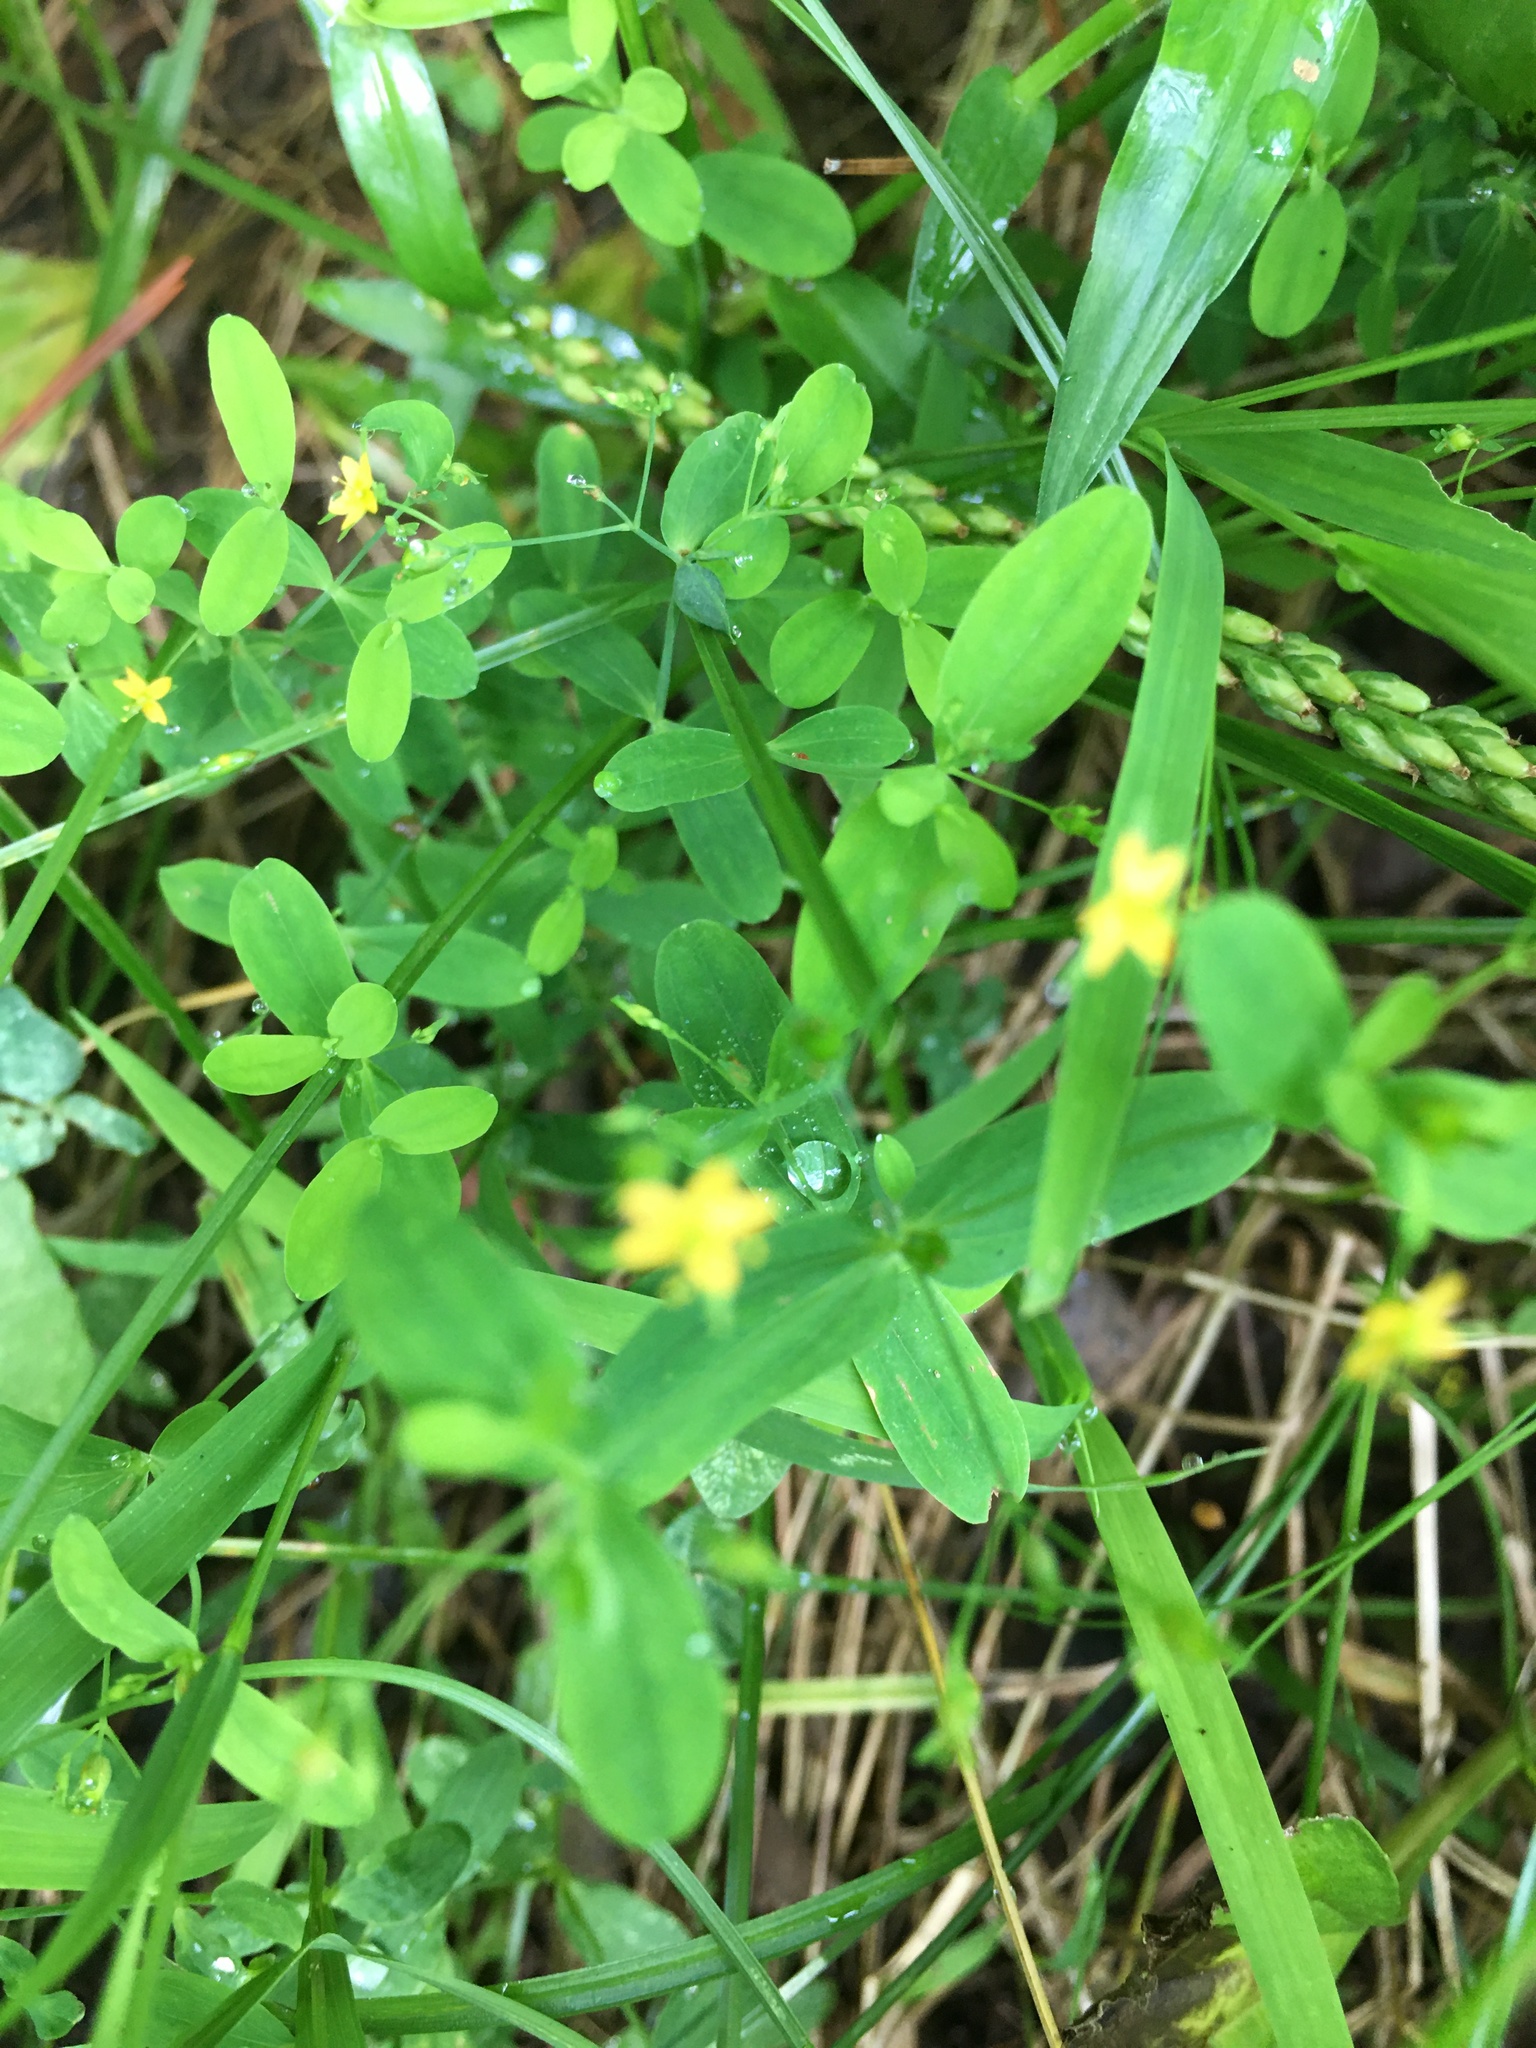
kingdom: Plantae
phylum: Tracheophyta
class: Magnoliopsida
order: Malpighiales
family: Hypericaceae
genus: Hypericum
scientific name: Hypericum mutilum
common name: Dwarf st. john's-wort
